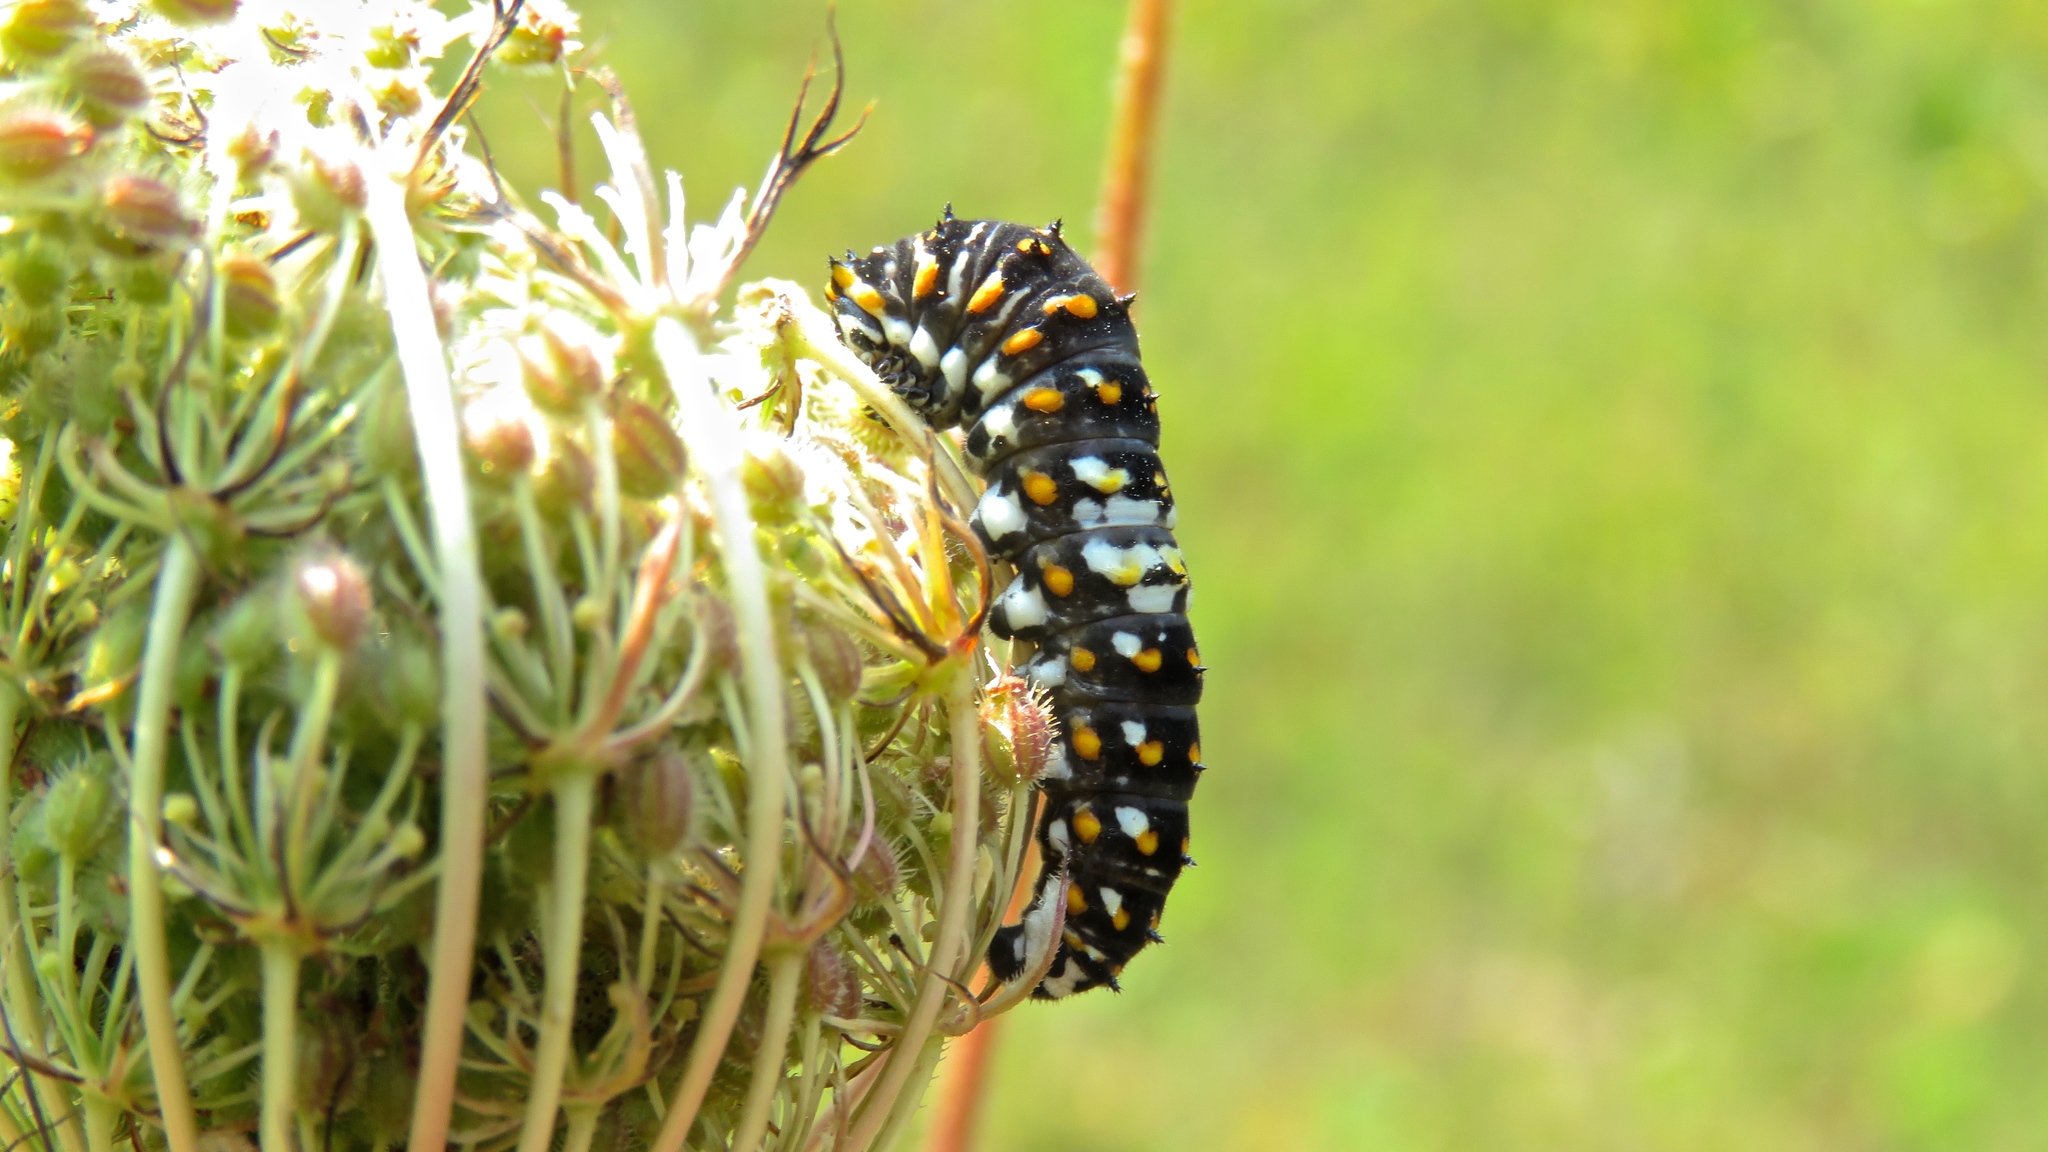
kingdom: Animalia
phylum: Arthropoda
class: Insecta
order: Lepidoptera
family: Papilionidae
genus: Papilio
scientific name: Papilio polyxenes
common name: Black swallowtail
